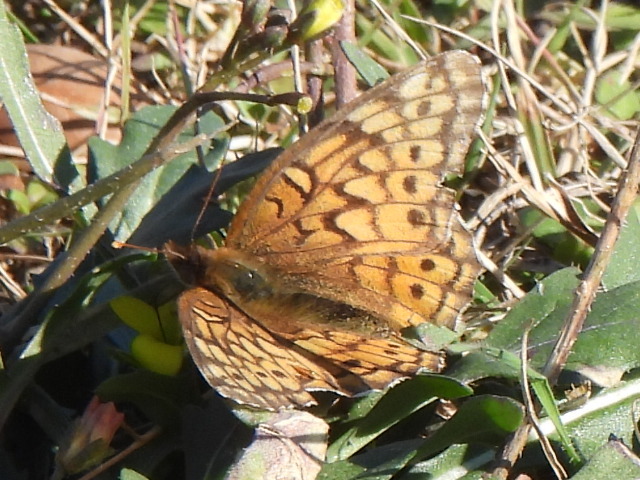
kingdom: Animalia
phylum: Arthropoda
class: Insecta
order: Lepidoptera
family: Nymphalidae
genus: Euptoieta
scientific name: Euptoieta claudia
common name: Variegated fritillary
